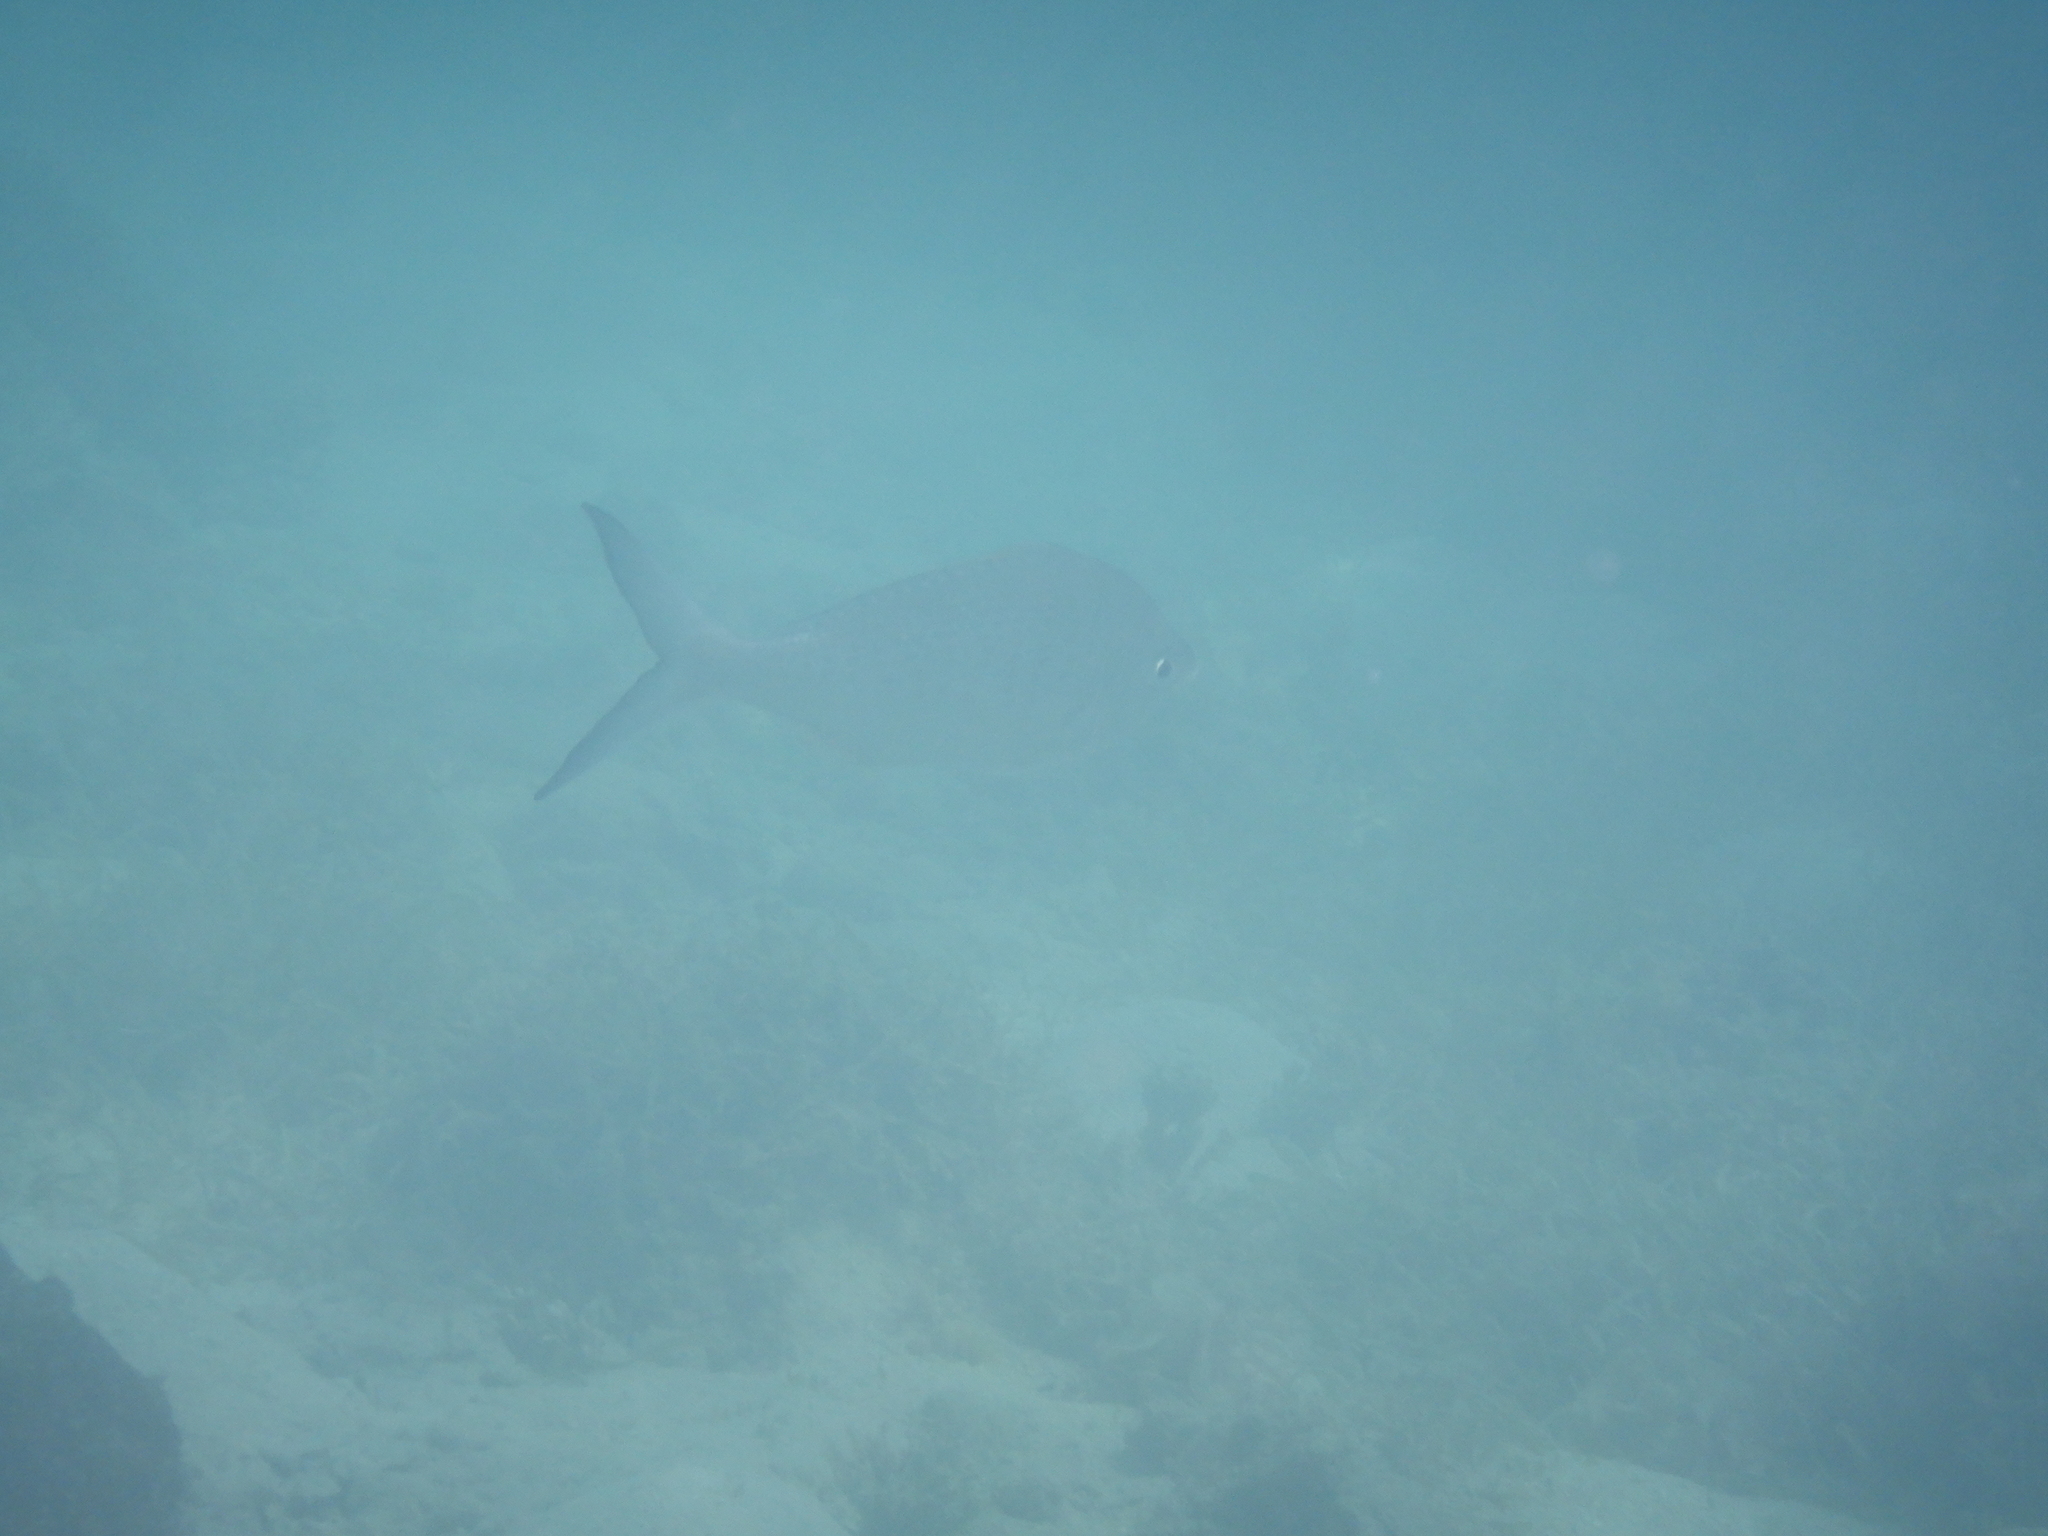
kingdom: Animalia
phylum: Chordata
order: Perciformes
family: Gerreidae
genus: Gerres
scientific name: Gerres longirostris
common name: Strongspine silver-biddy
